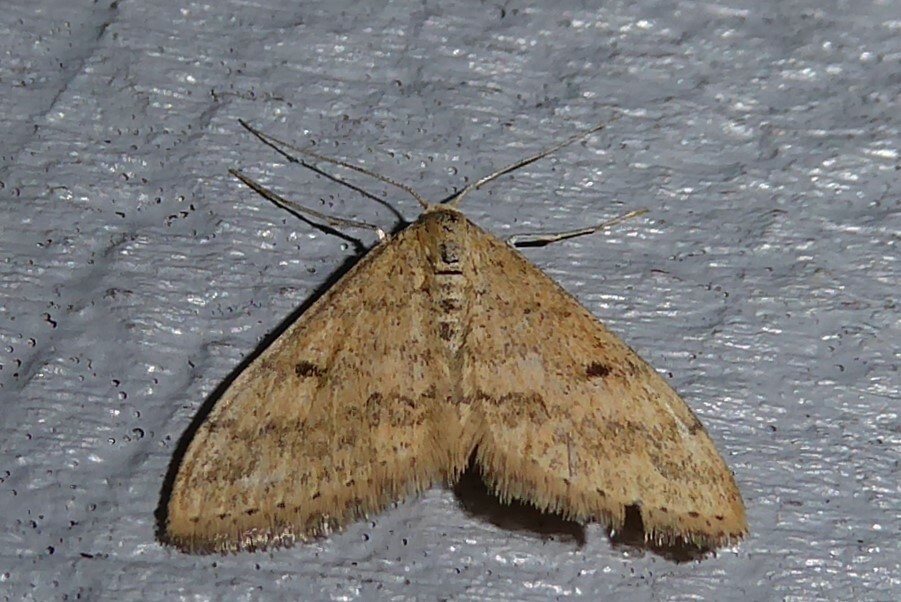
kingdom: Animalia
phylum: Arthropoda
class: Insecta
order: Lepidoptera
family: Geometridae
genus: Scopula
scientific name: Scopula rubraria
